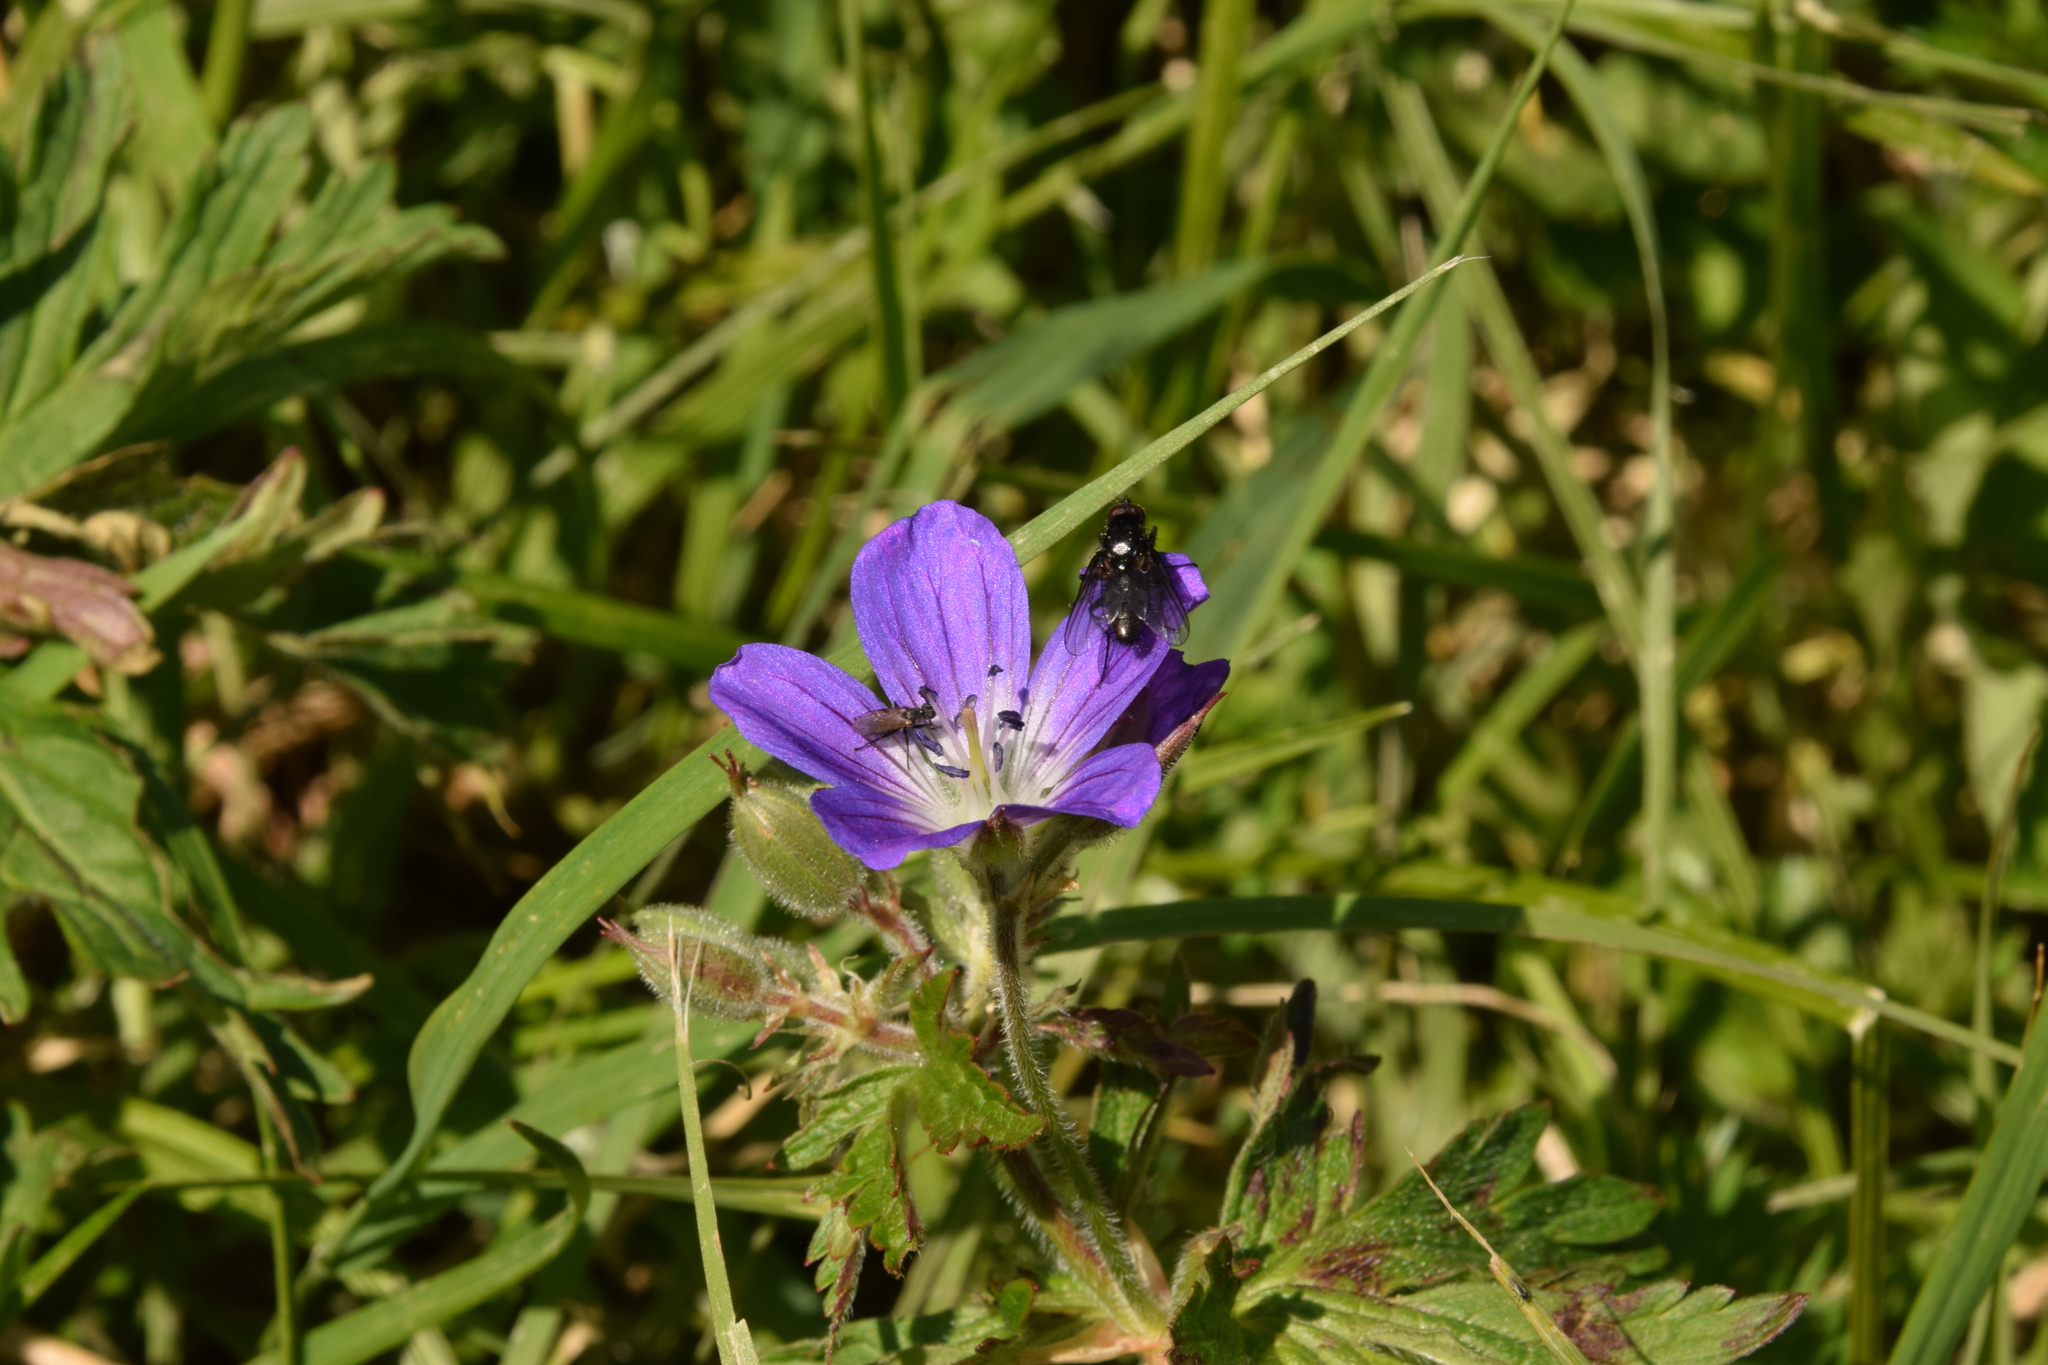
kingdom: Plantae
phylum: Tracheophyta
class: Magnoliopsida
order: Geraniales
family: Geraniaceae
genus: Geranium
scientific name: Geranium sylvaticum
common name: Wood crane's-bill
